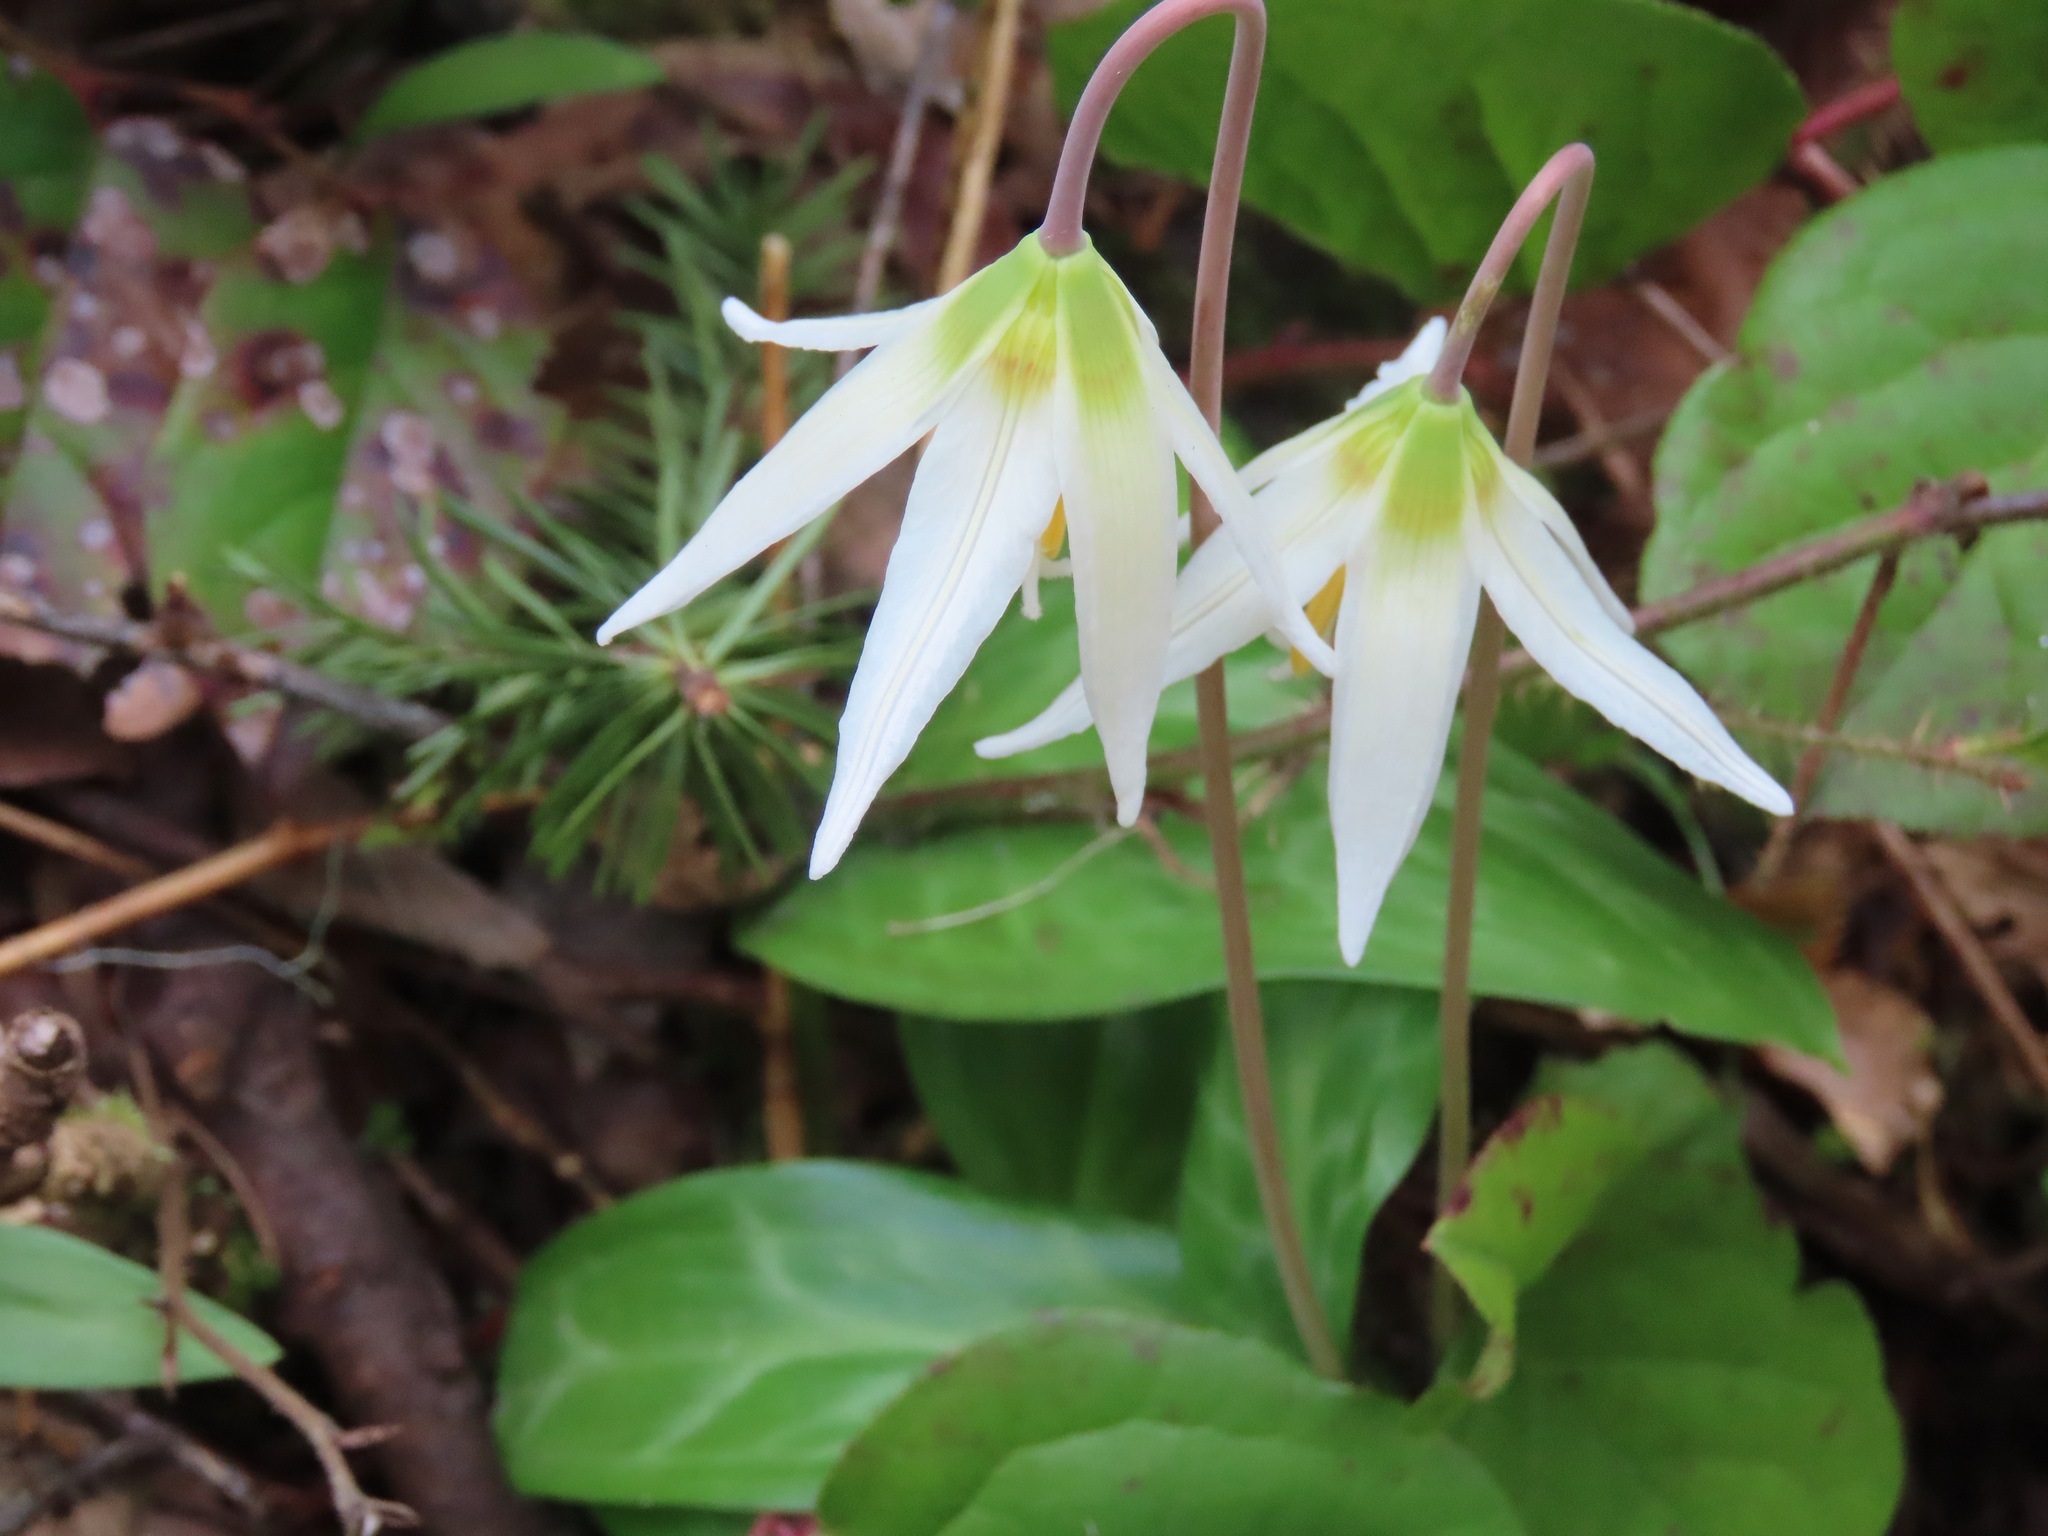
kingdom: Plantae
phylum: Tracheophyta
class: Liliopsida
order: Liliales
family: Liliaceae
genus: Erythronium
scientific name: Erythronium oregonum
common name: Giant adder's-tongue
